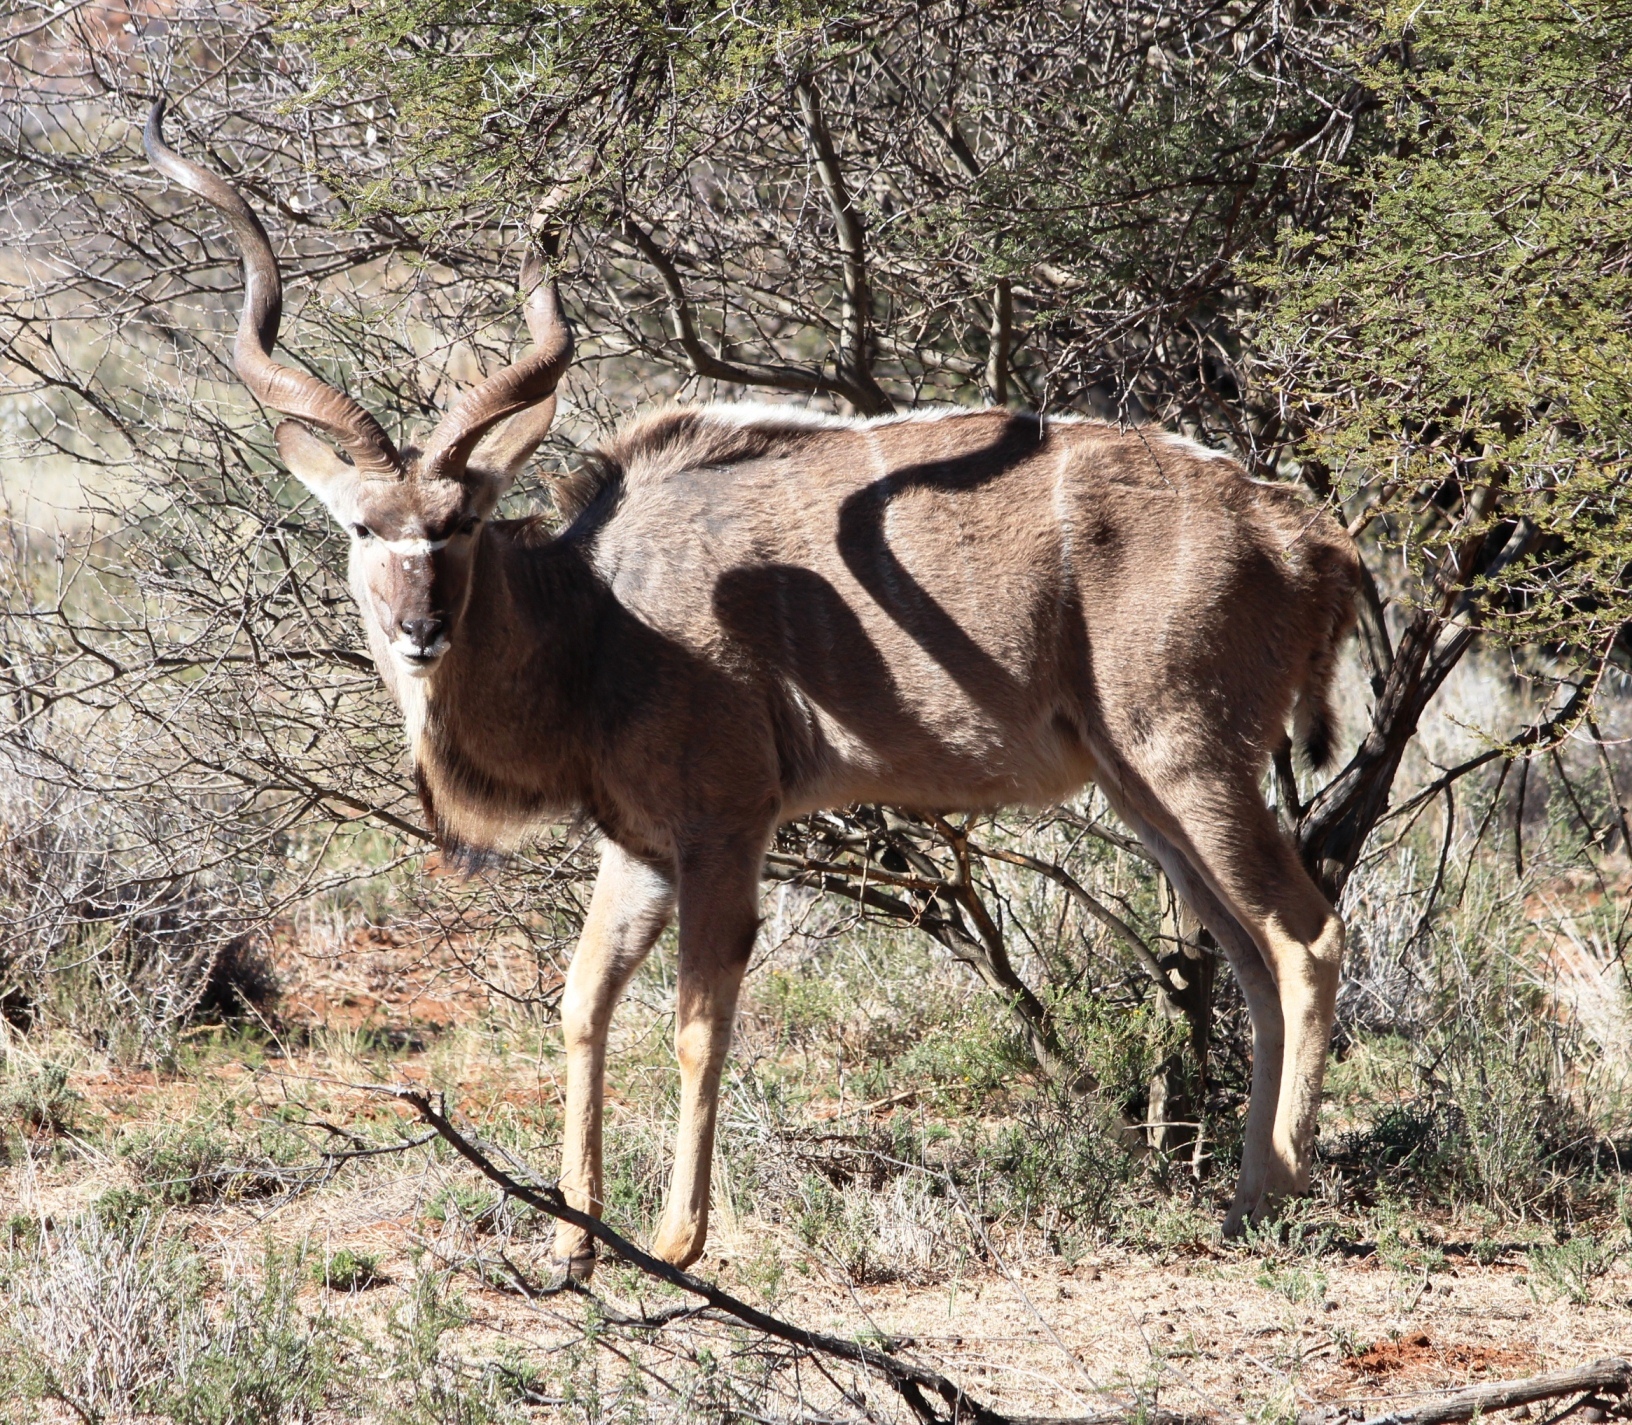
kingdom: Animalia
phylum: Chordata
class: Mammalia
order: Artiodactyla
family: Bovidae
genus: Tragelaphus
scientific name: Tragelaphus strepsiceros
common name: Greater kudu
